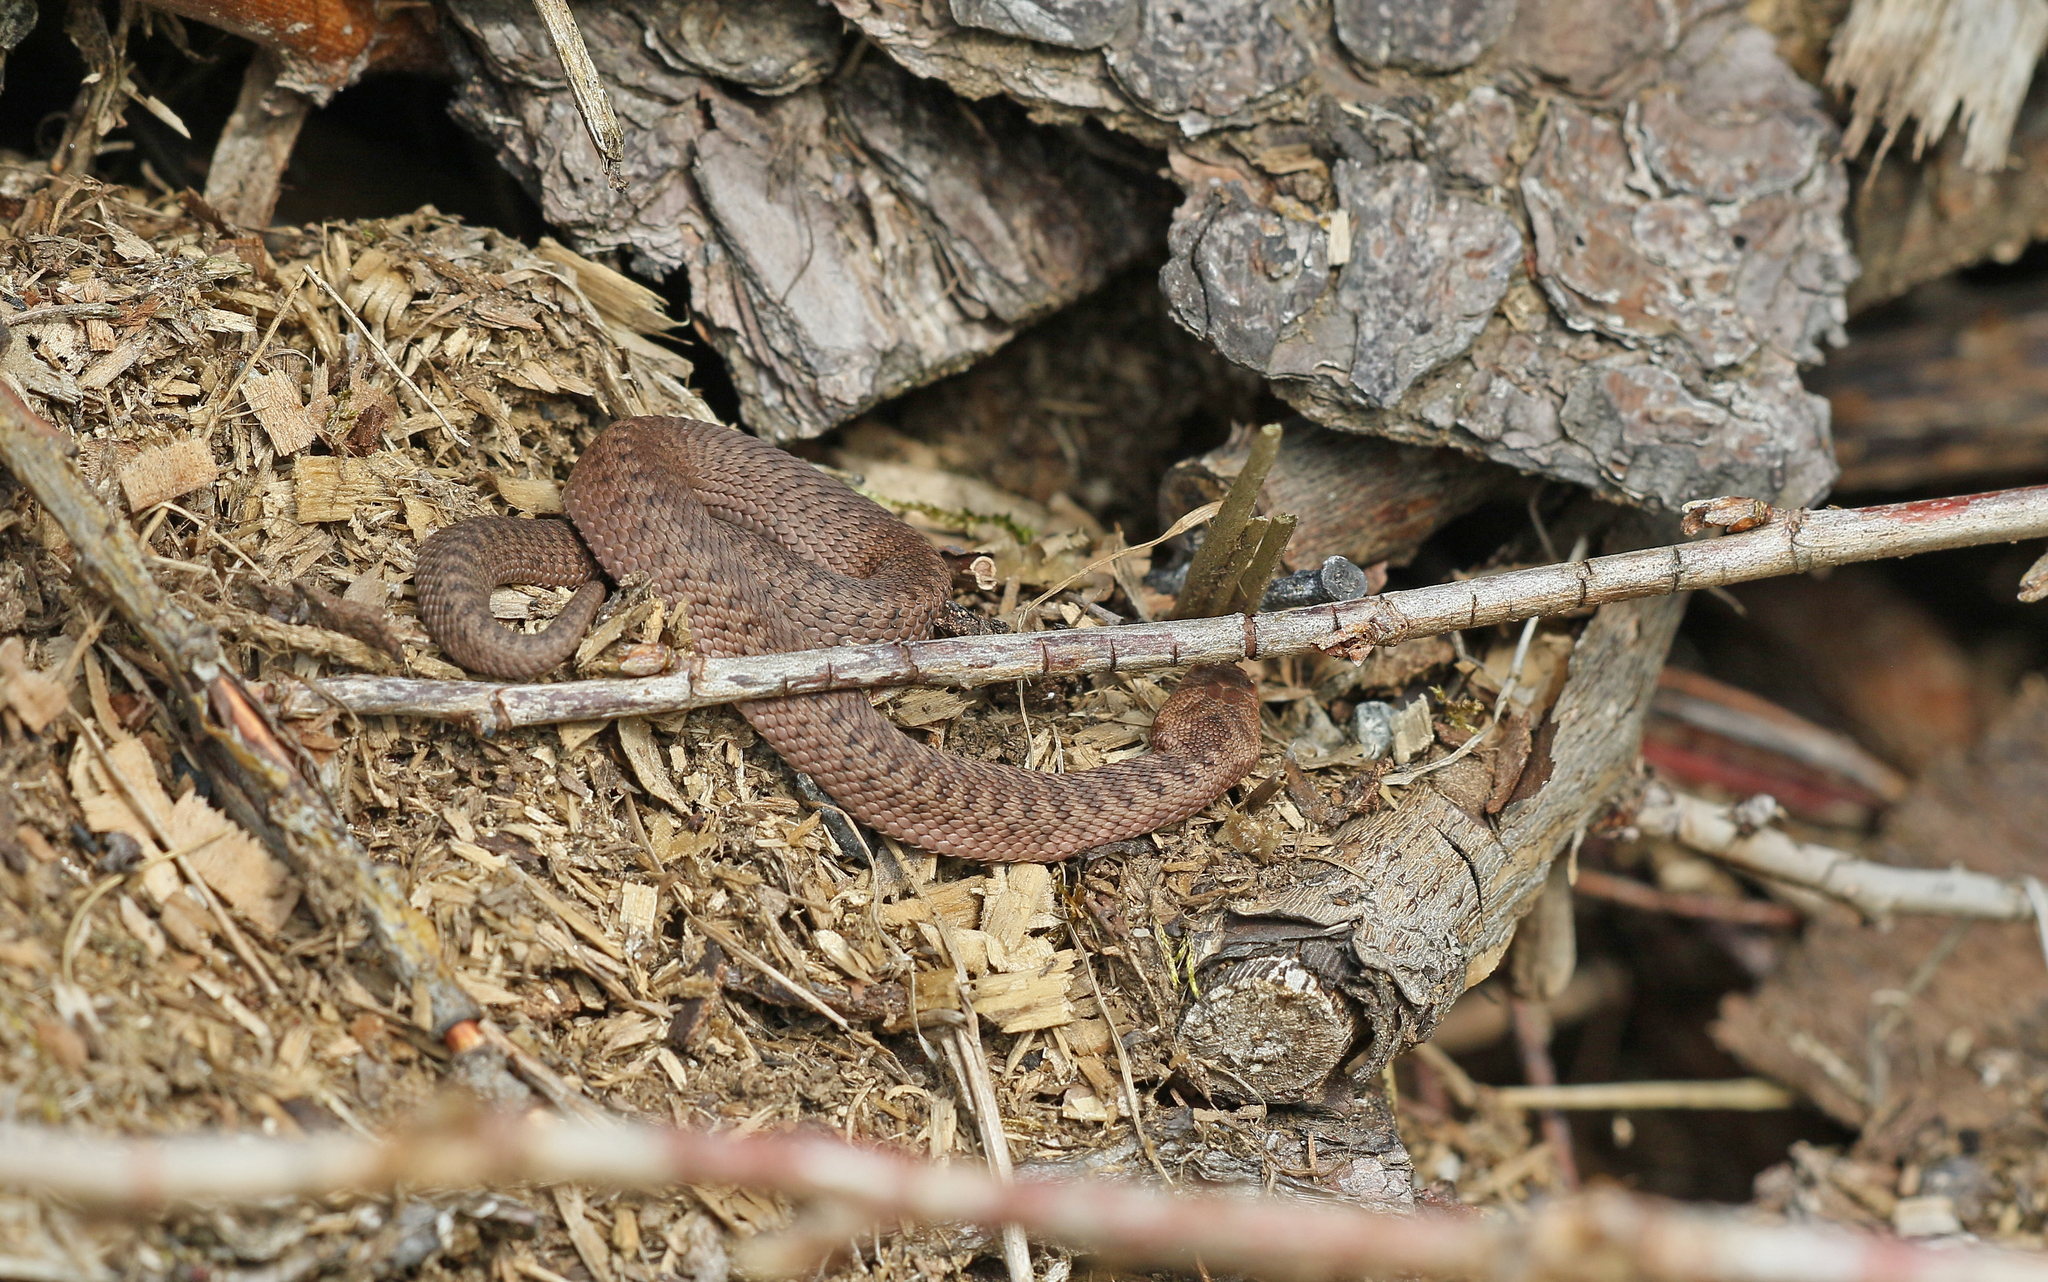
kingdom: Animalia
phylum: Chordata
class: Squamata
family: Viperidae
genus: Vipera
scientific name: Vipera berus
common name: Adder
